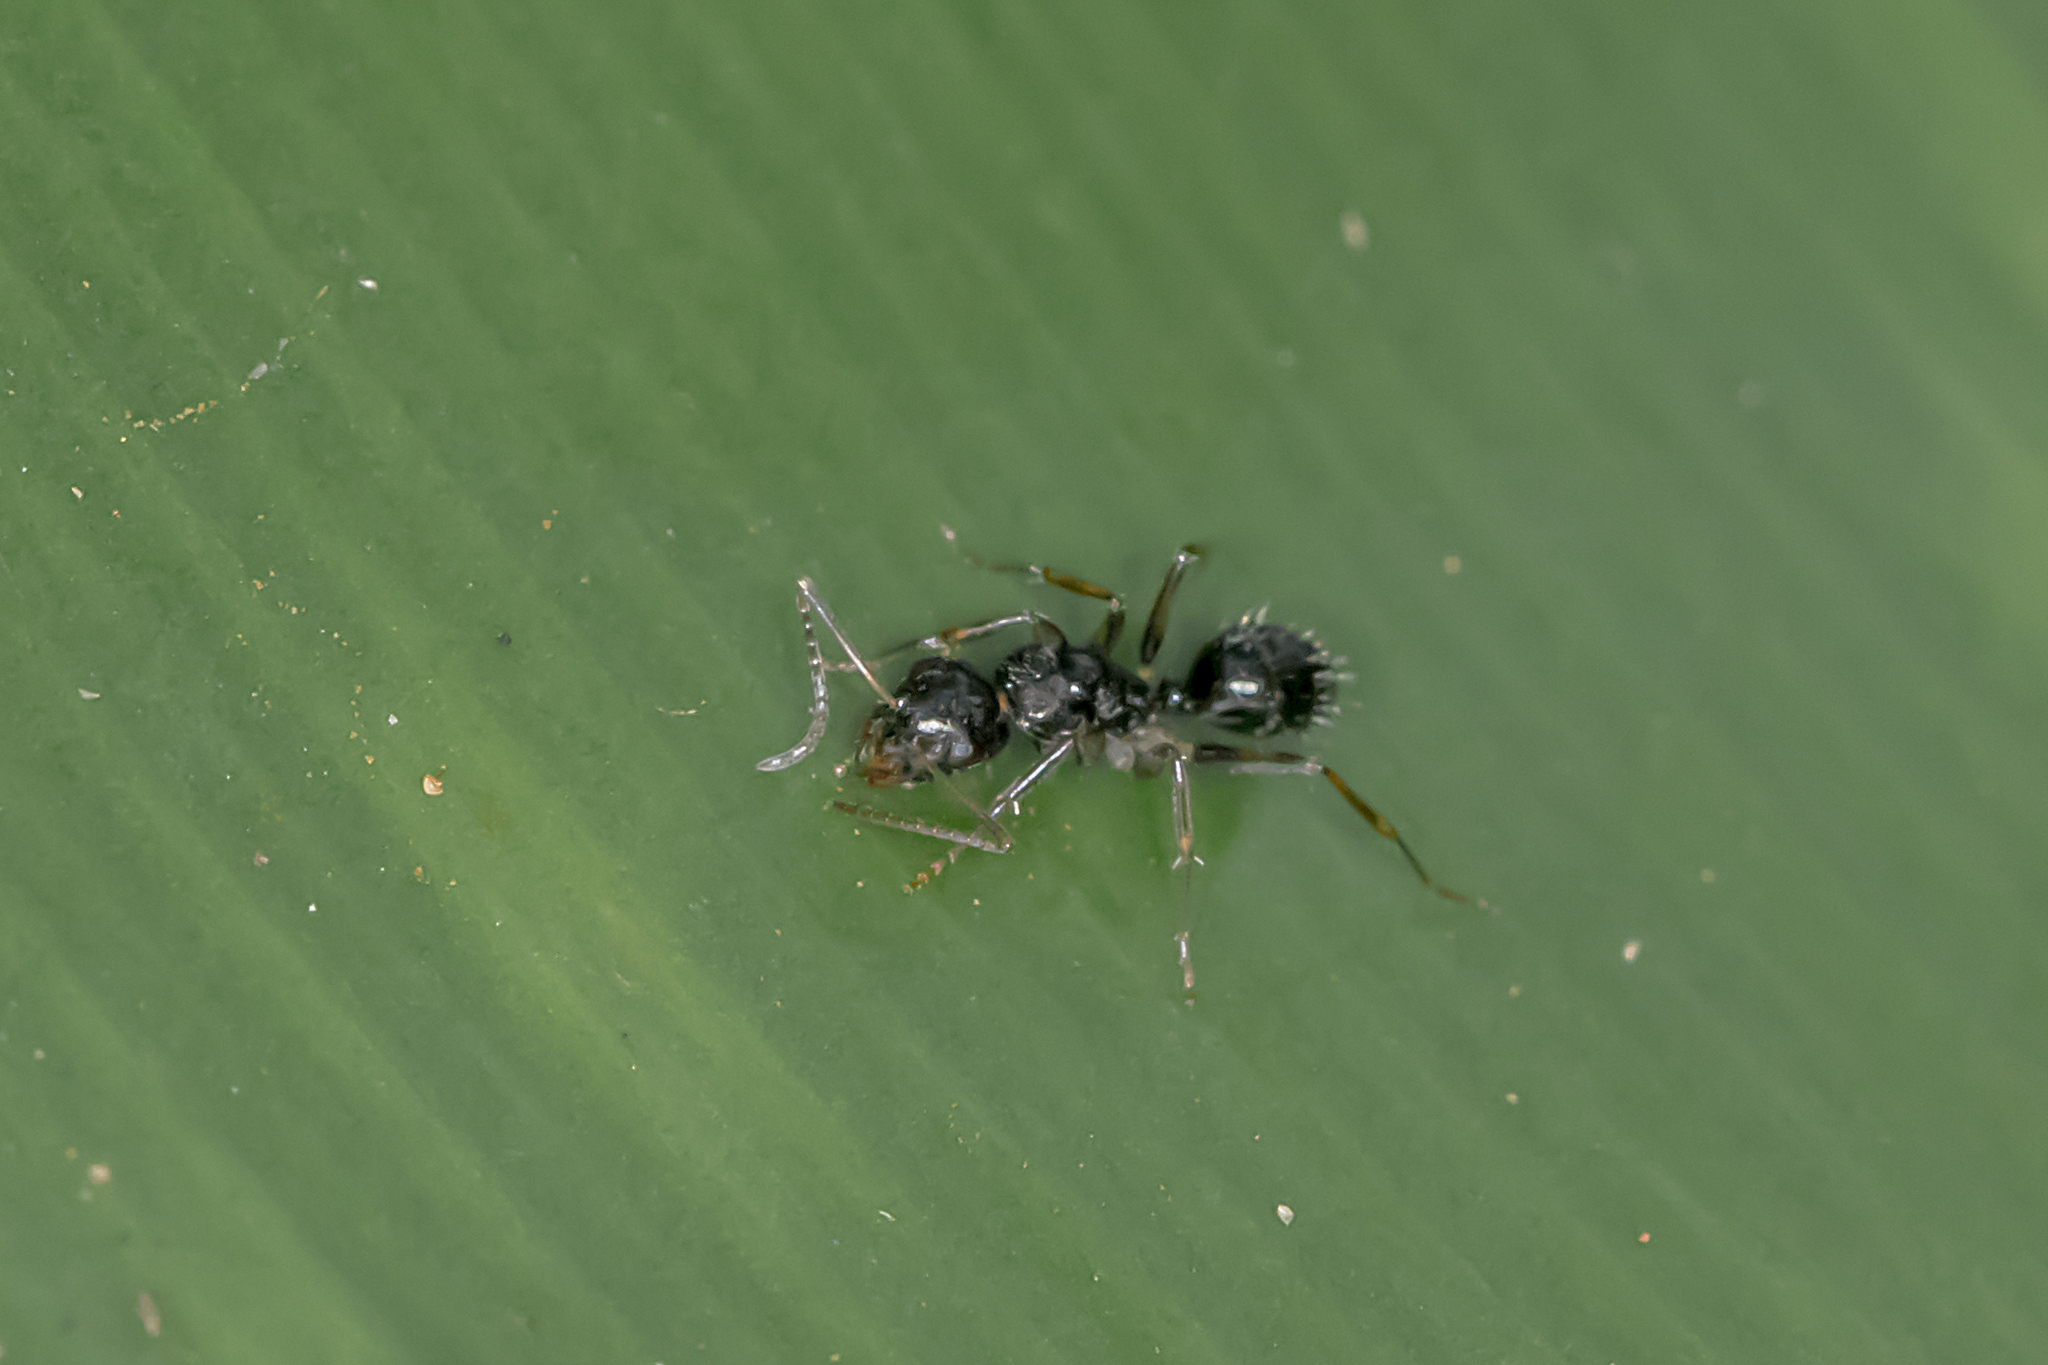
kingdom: Animalia
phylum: Arthropoda
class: Insecta
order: Hymenoptera
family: Formicidae
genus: Camponotus
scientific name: Camponotus froggatti
